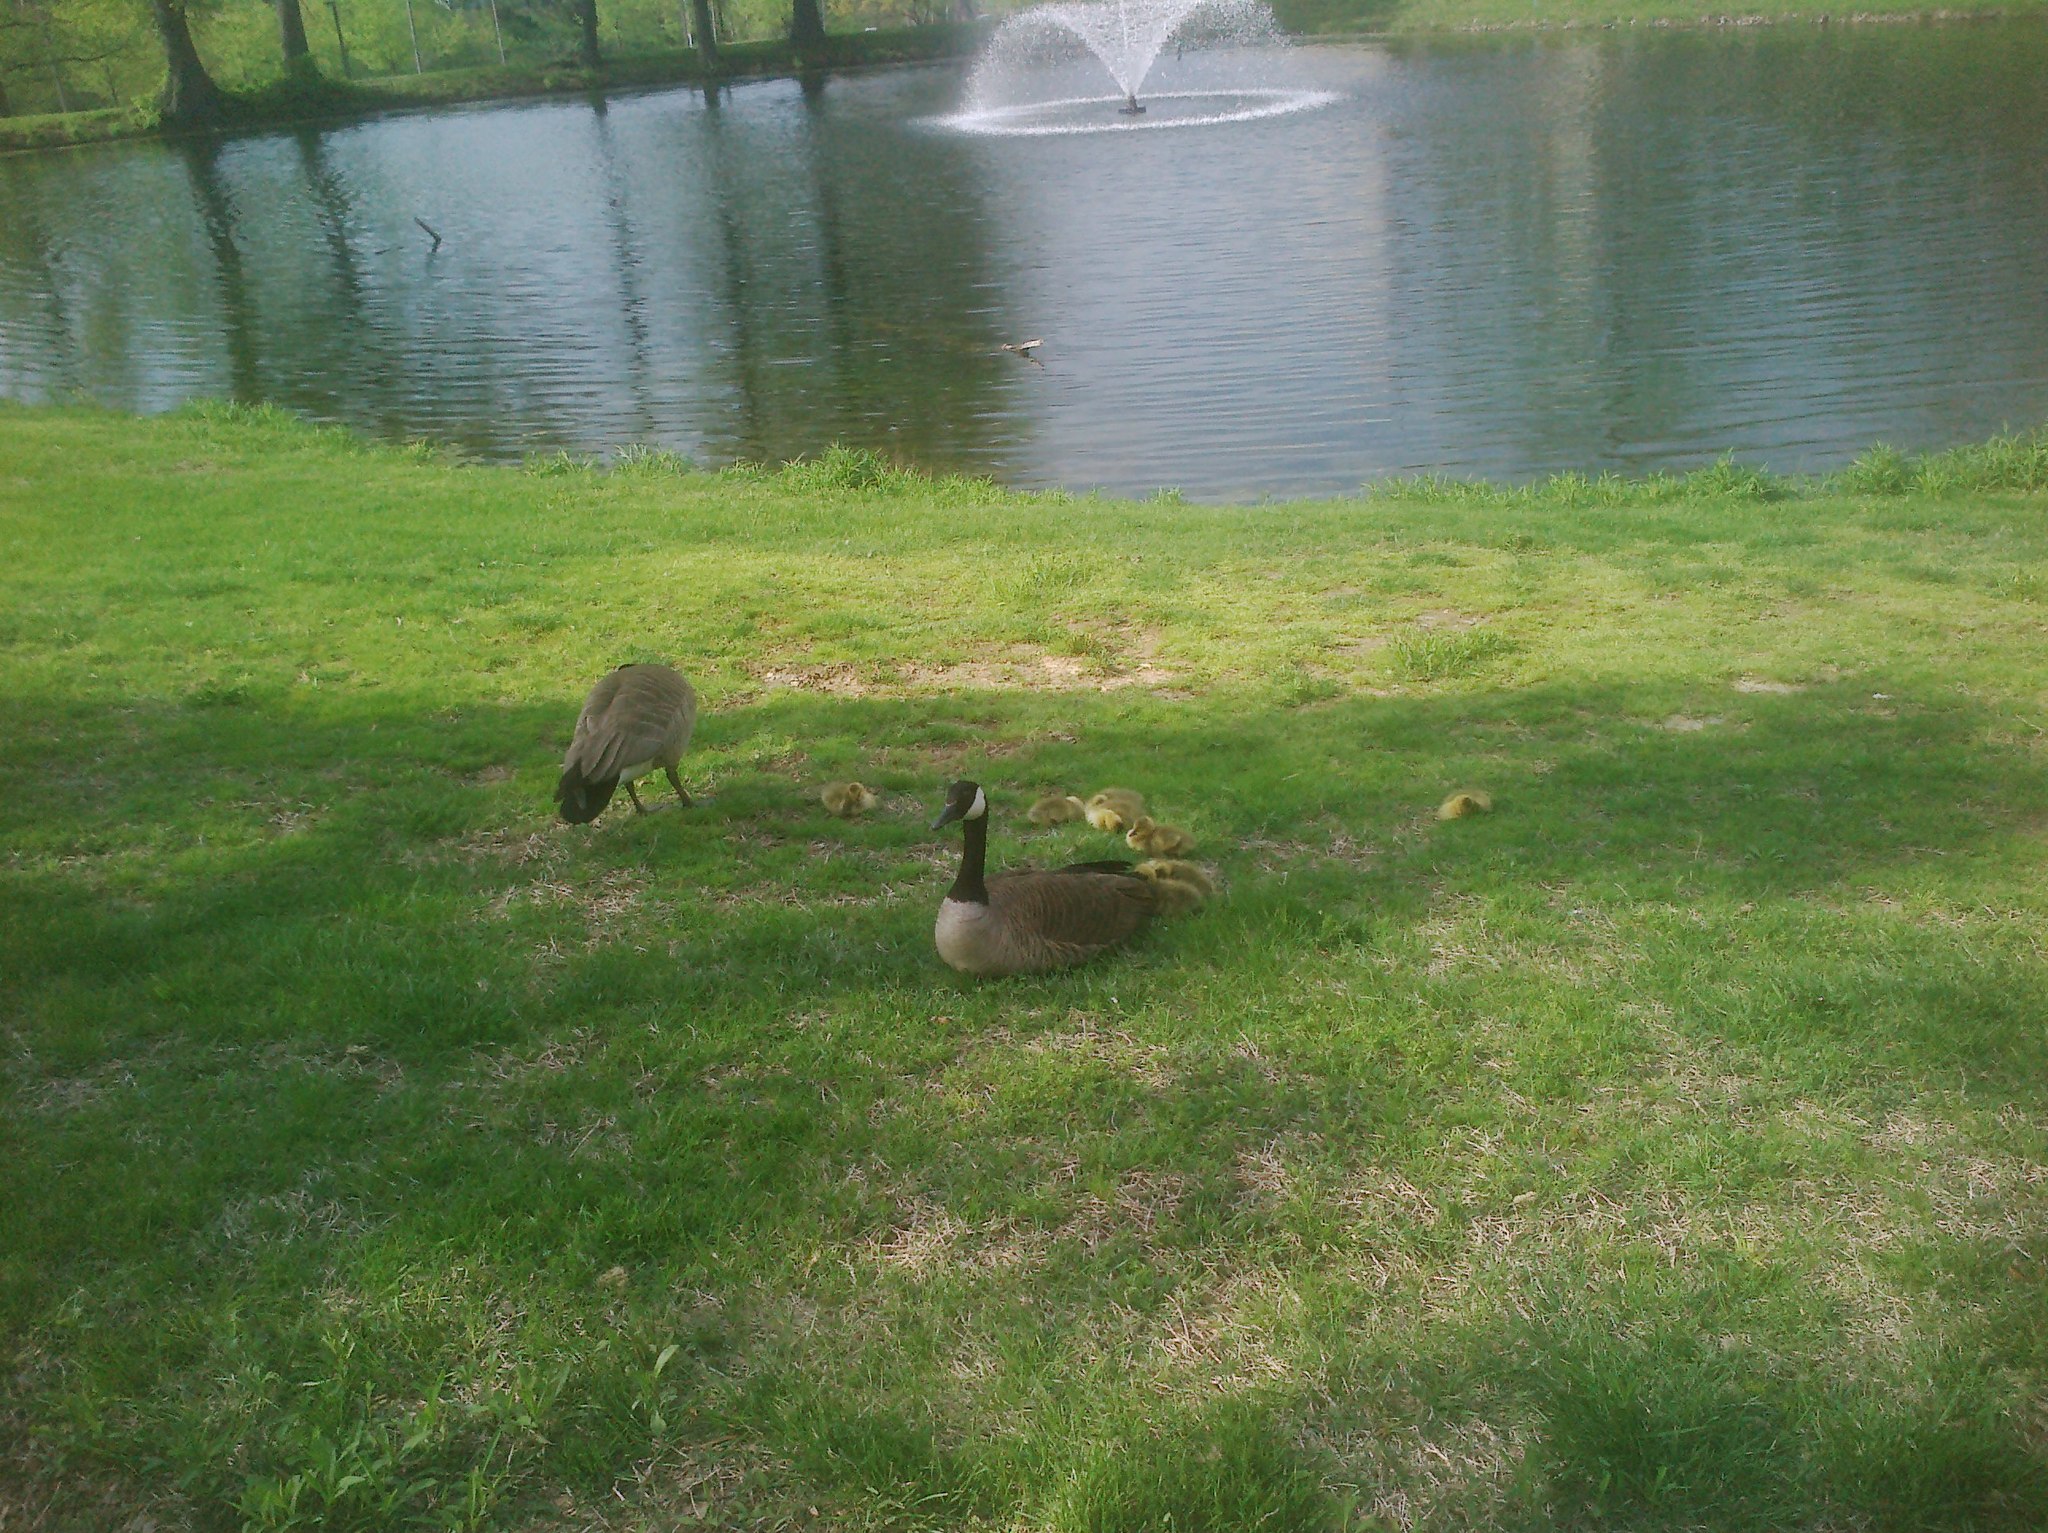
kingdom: Animalia
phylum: Chordata
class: Aves
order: Anseriformes
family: Anatidae
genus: Branta
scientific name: Branta canadensis
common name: Canada goose
